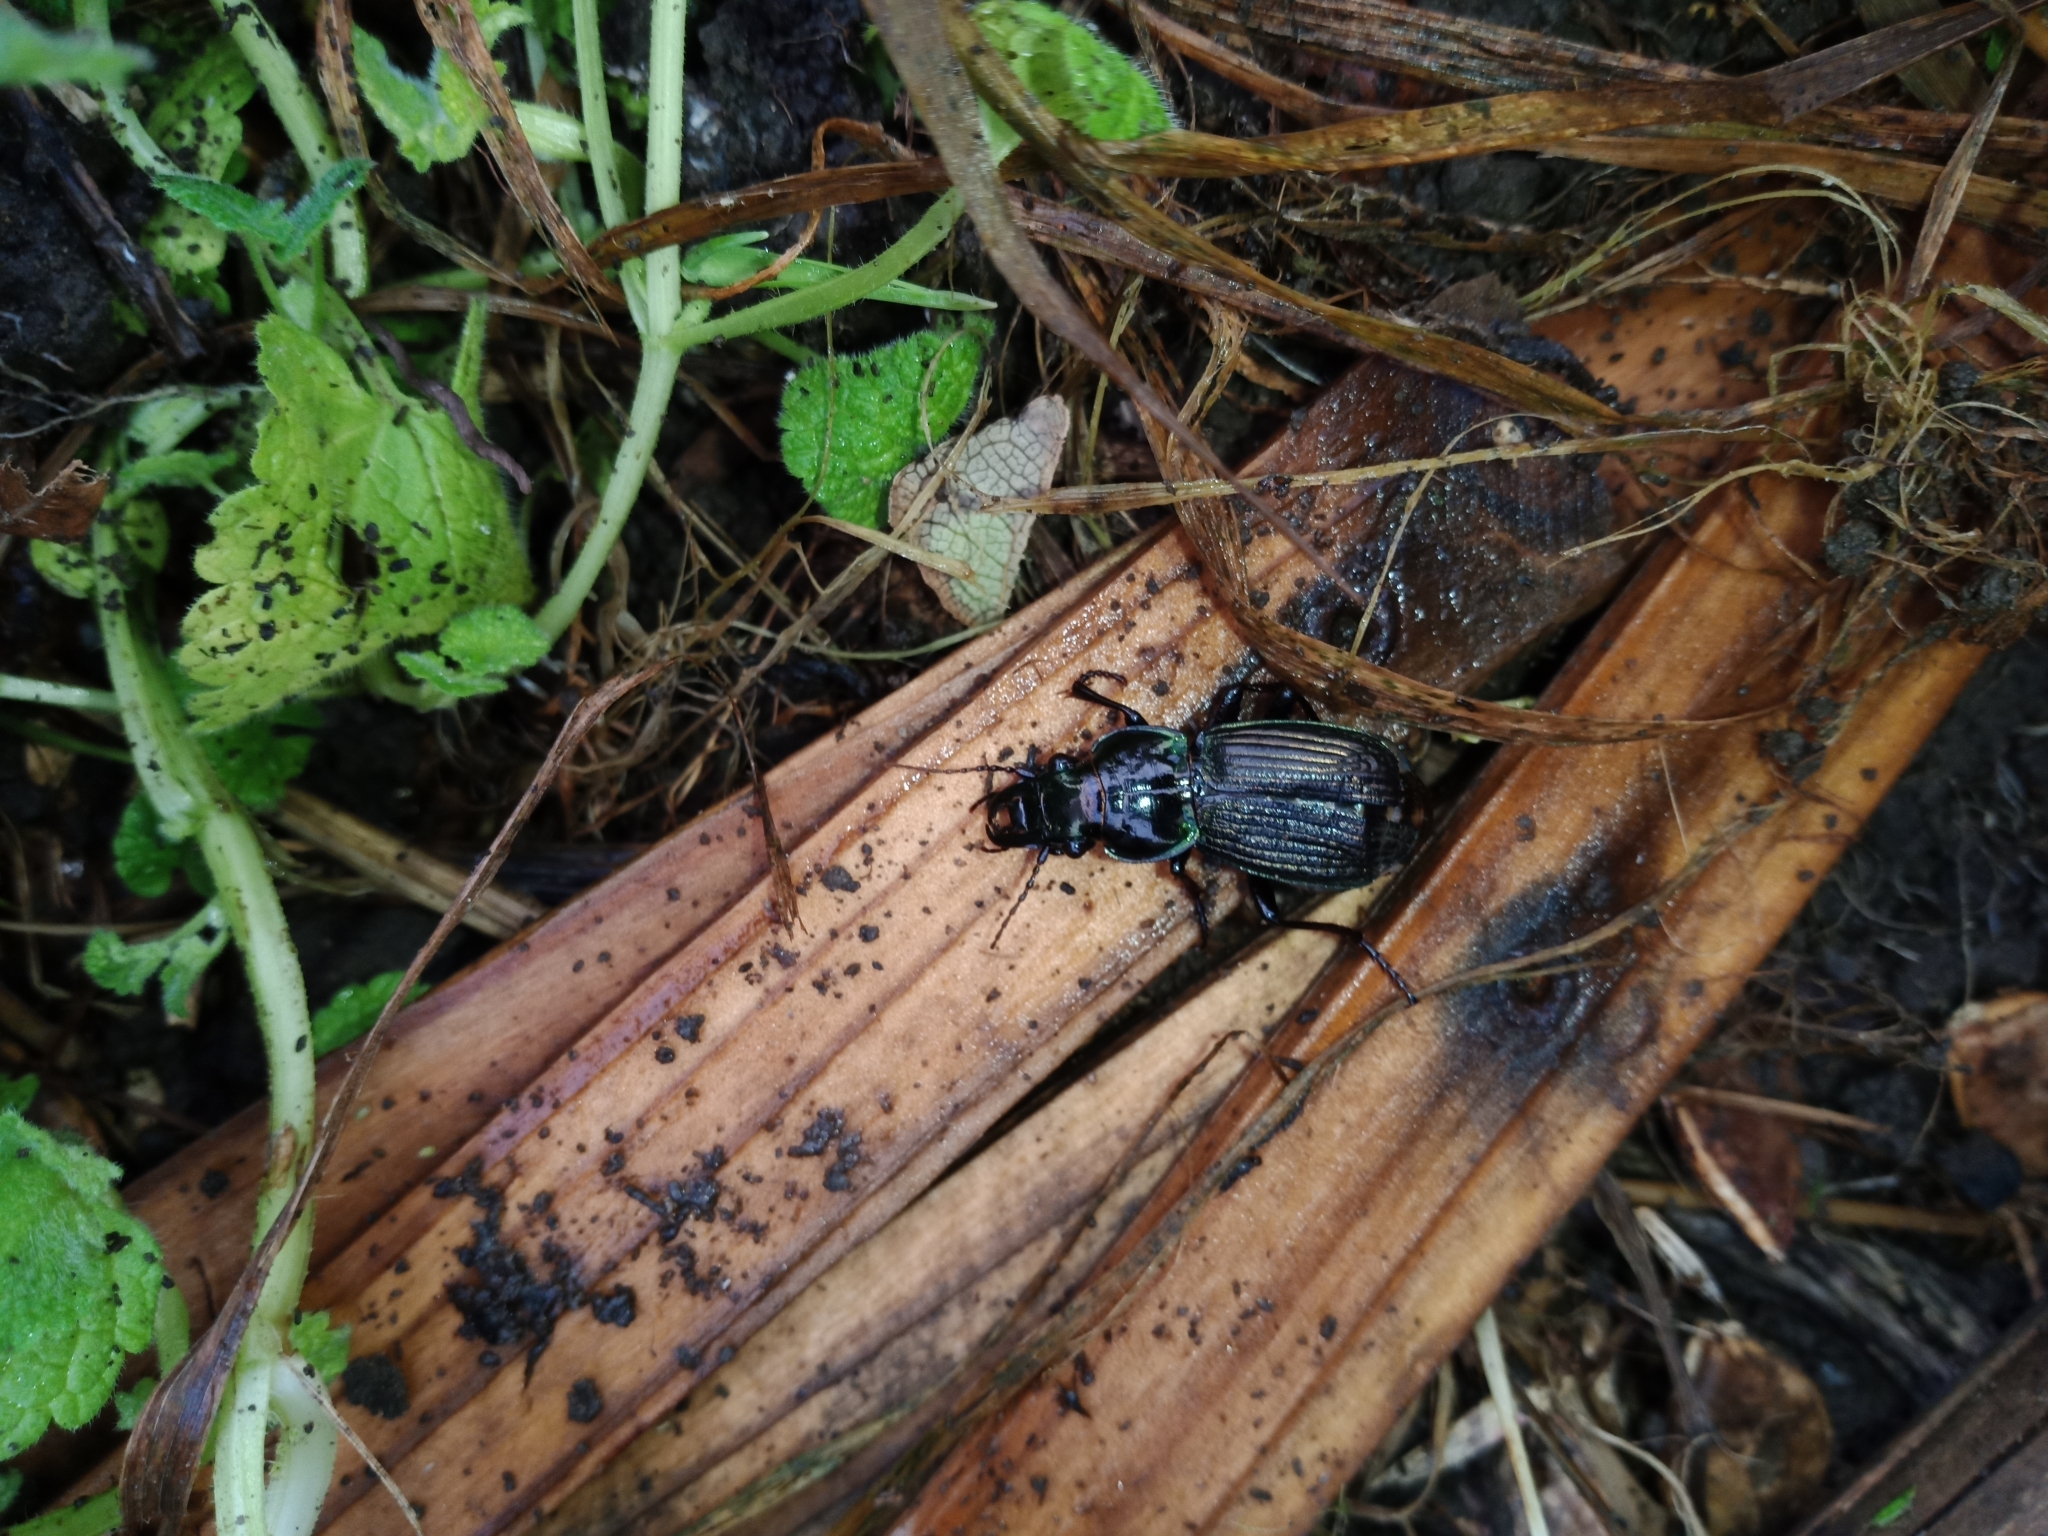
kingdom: Animalia
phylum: Arthropoda
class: Insecta
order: Coleoptera
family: Carabidae
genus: Megadromus
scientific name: Megadromus antarcticus
